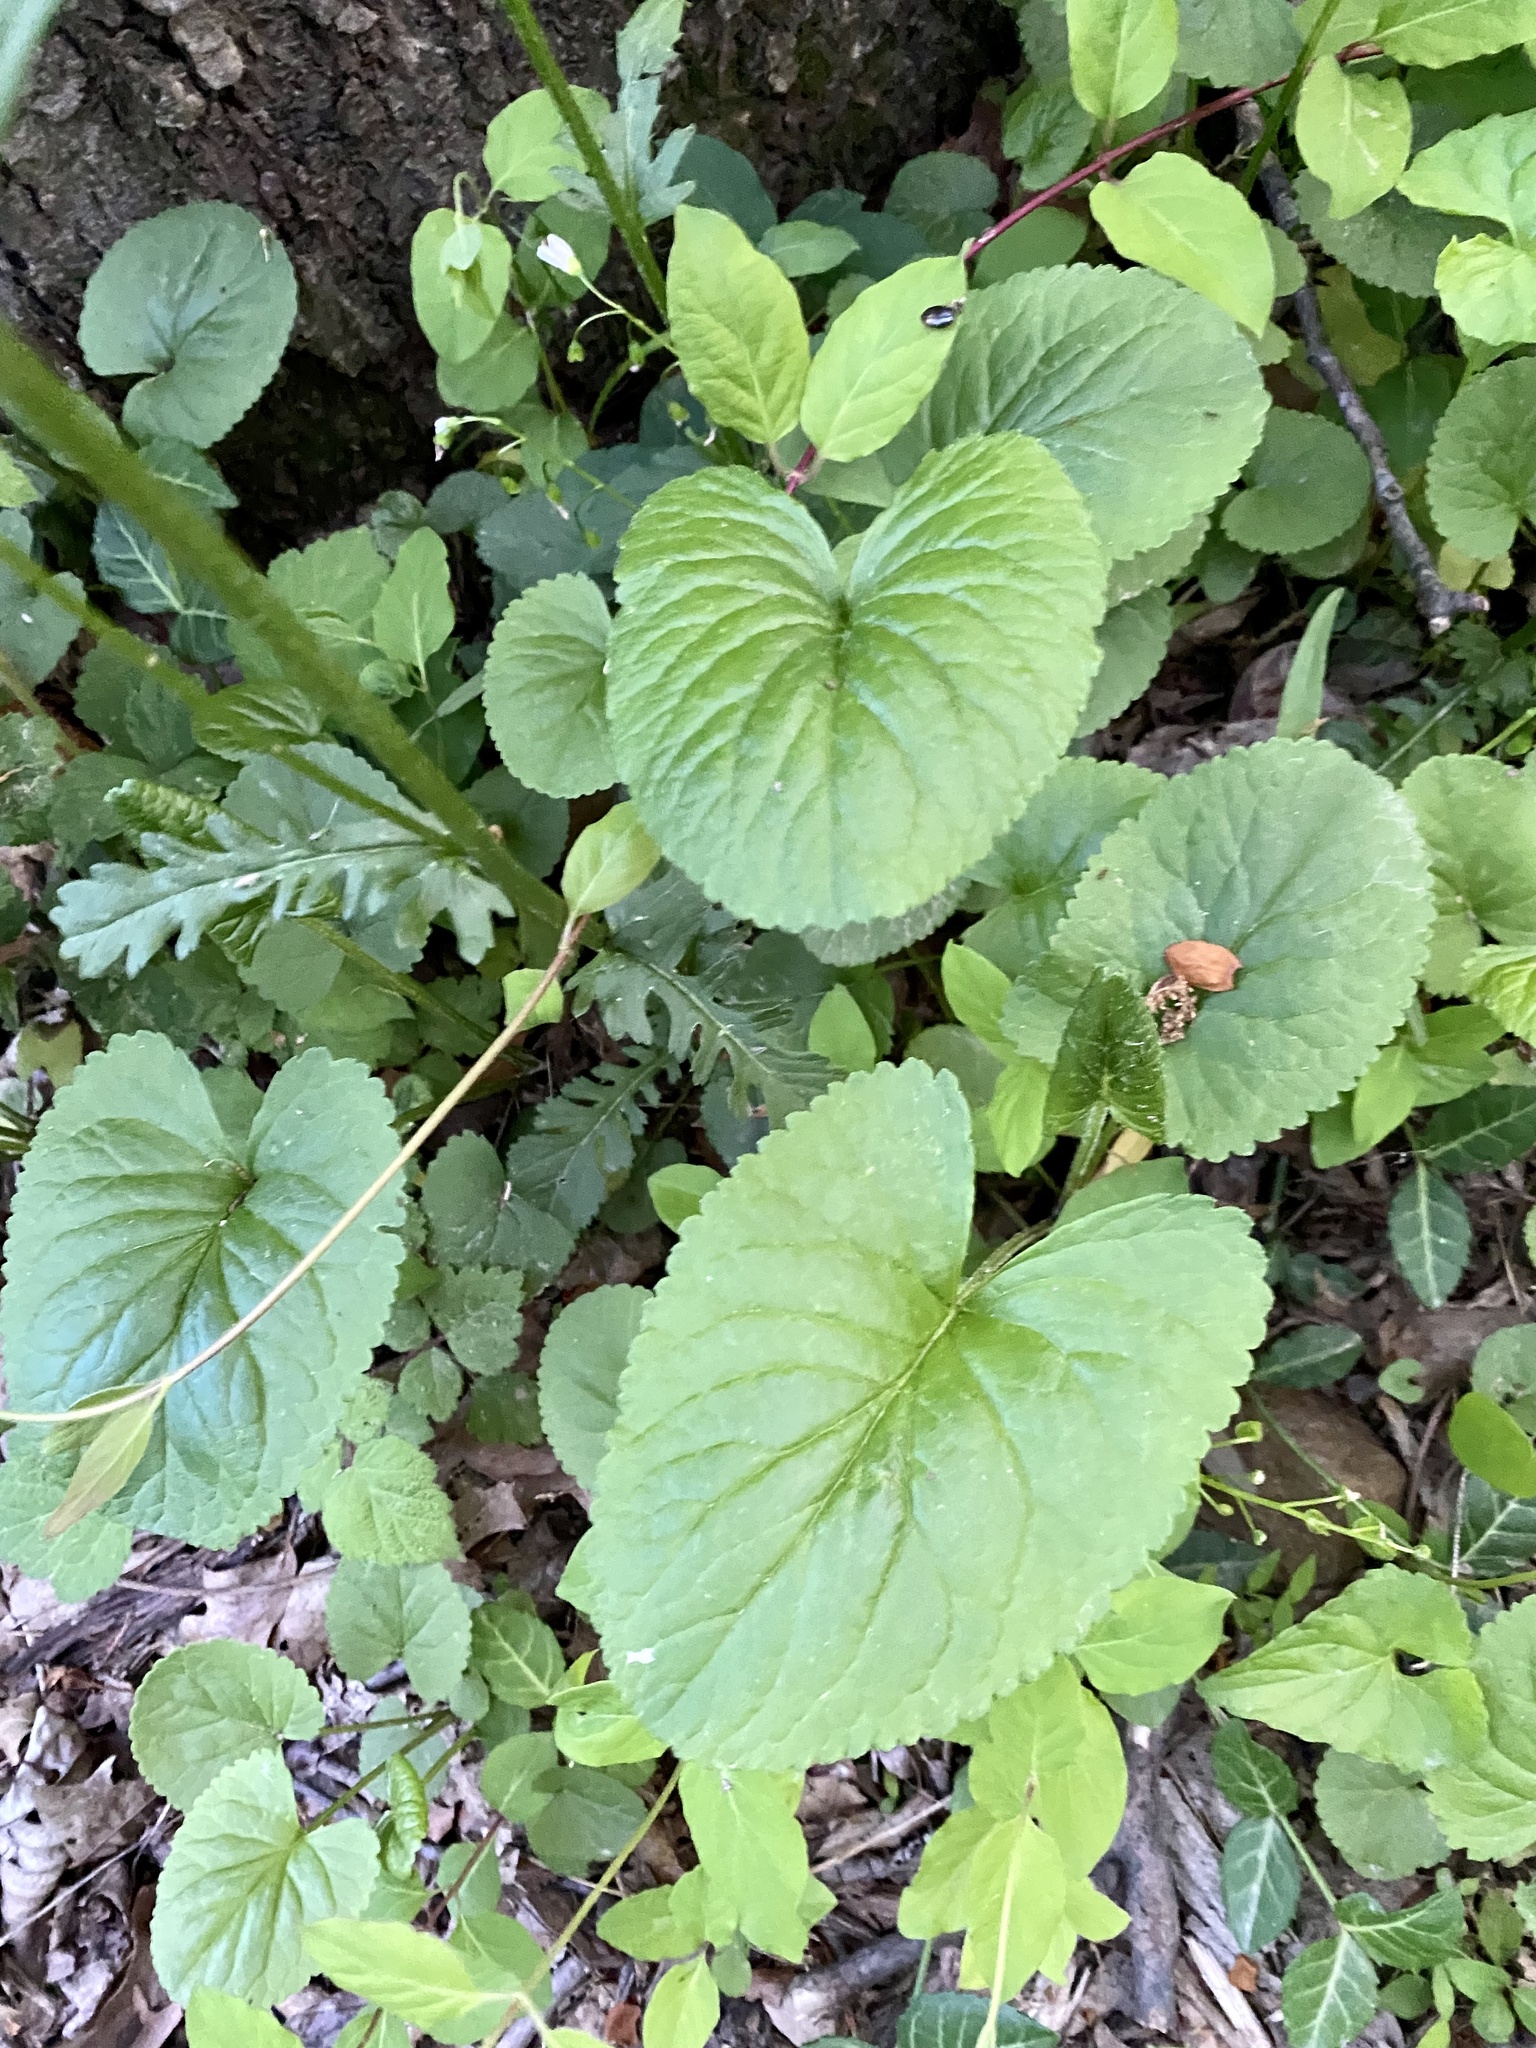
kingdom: Plantae
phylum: Tracheophyta
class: Magnoliopsida
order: Asterales
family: Asteraceae
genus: Packera
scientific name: Packera aurea
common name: Golden groundsel
